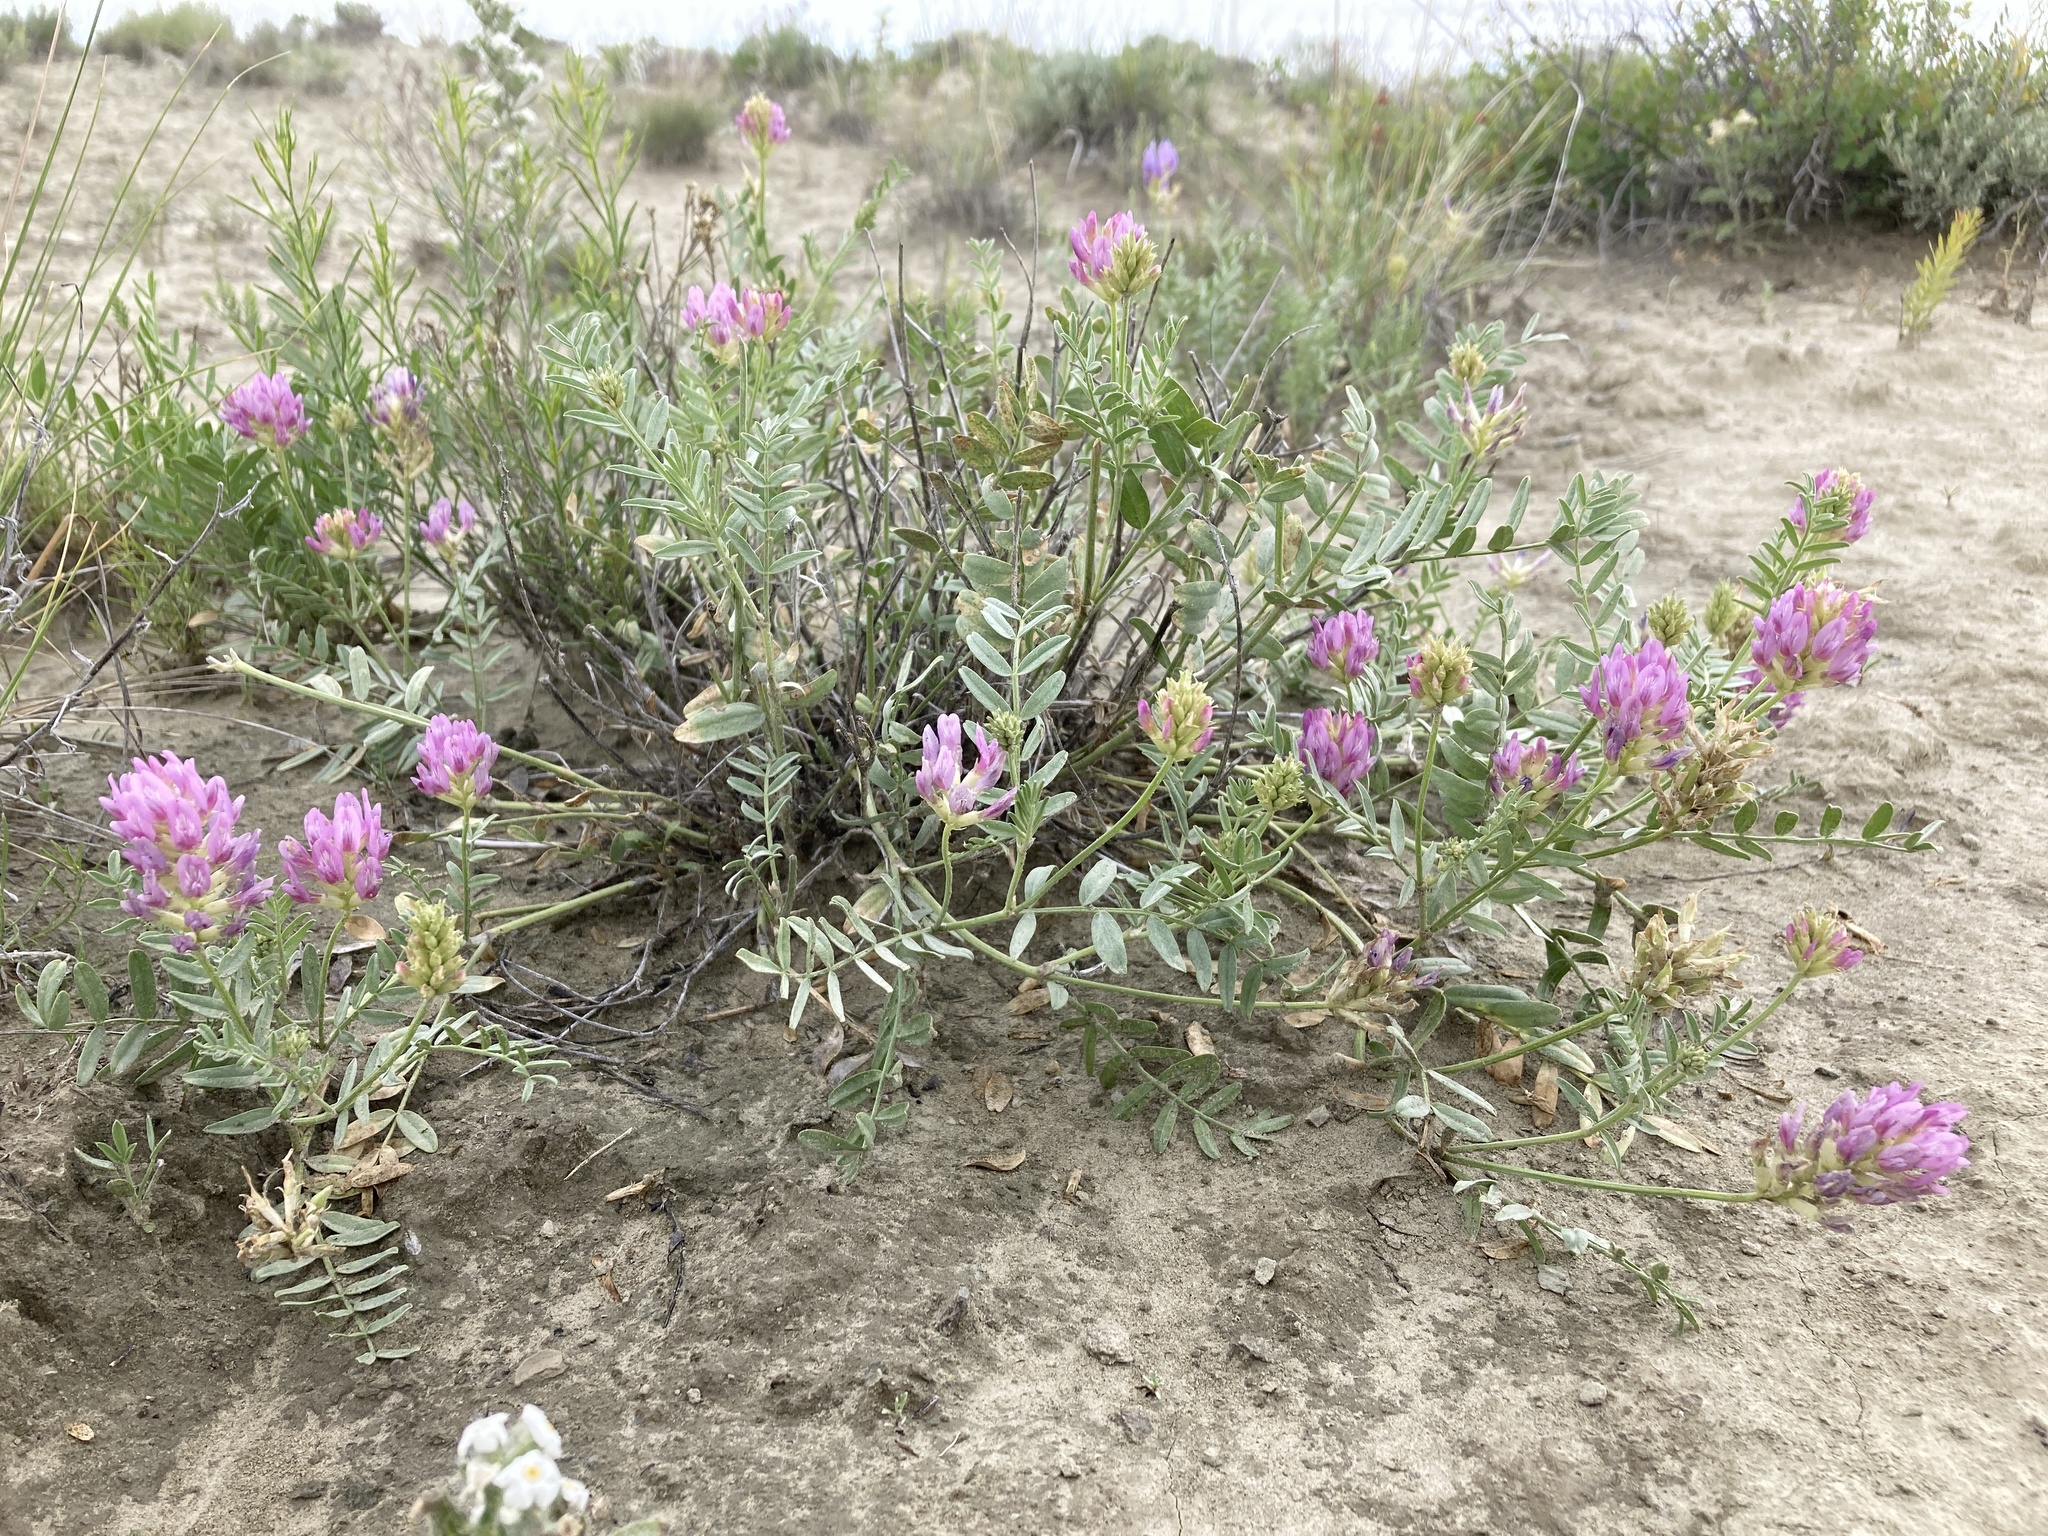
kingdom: Plantae
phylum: Tracheophyta
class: Magnoliopsida
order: Fabales
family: Fabaceae
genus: Astragalus
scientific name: Astragalus laxmannii
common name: Laxmann's milk-vetch
